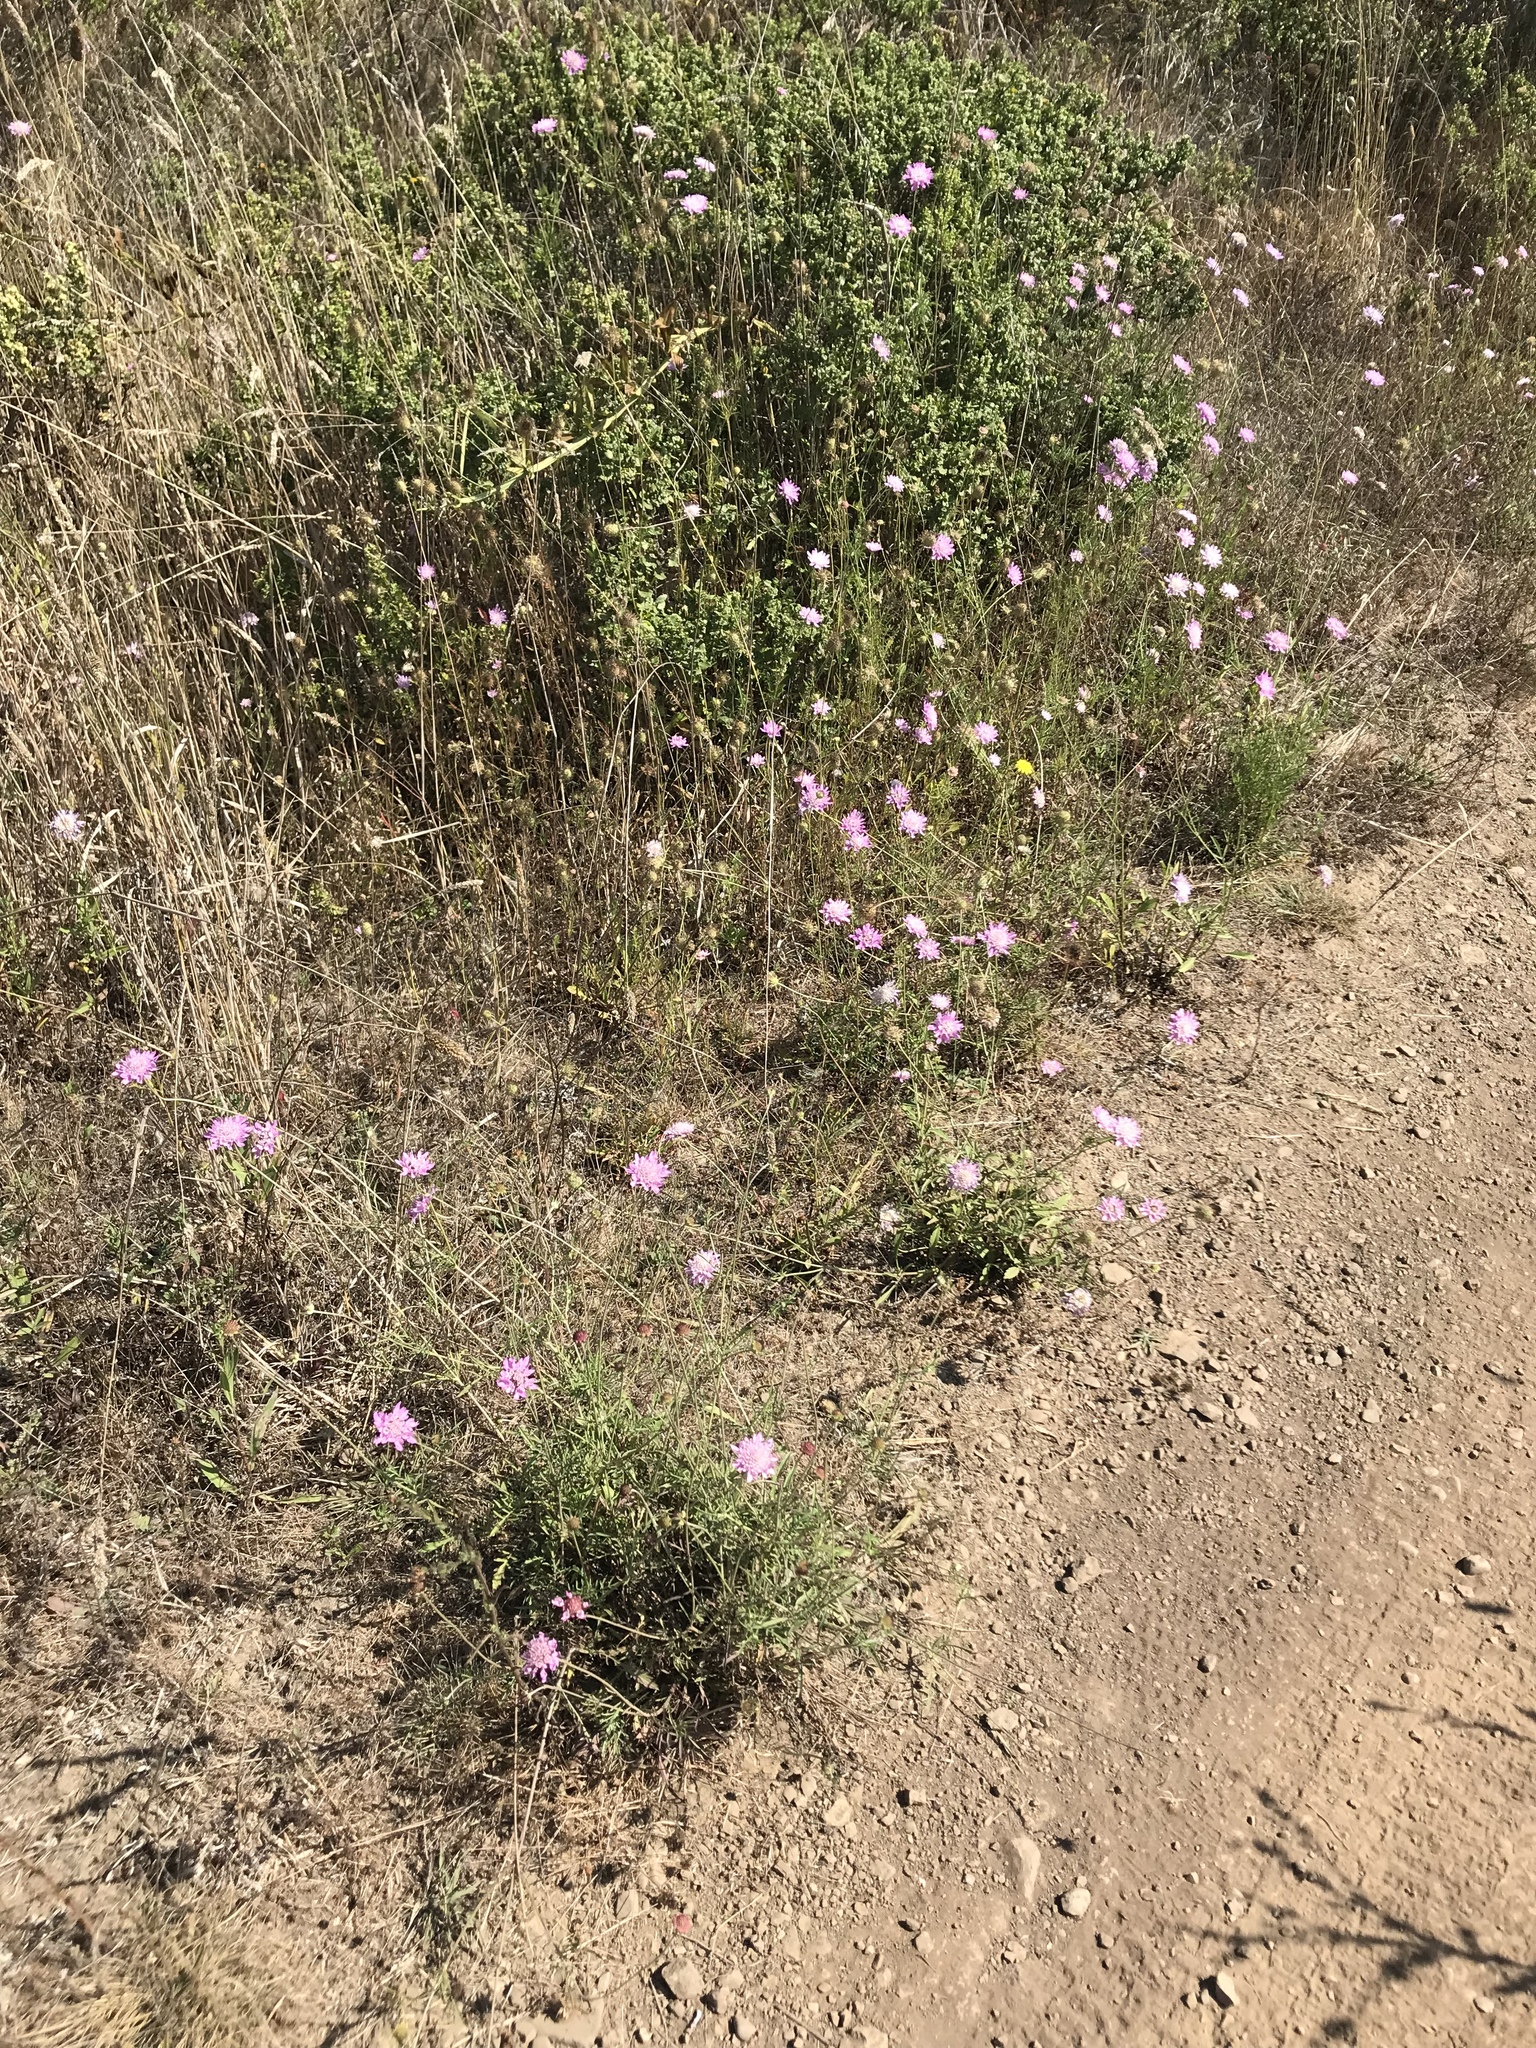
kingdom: Plantae
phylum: Tracheophyta
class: Magnoliopsida
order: Dipsacales
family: Caprifoliaceae
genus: Sixalix
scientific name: Sixalix atropurpurea
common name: Sweet scabious
